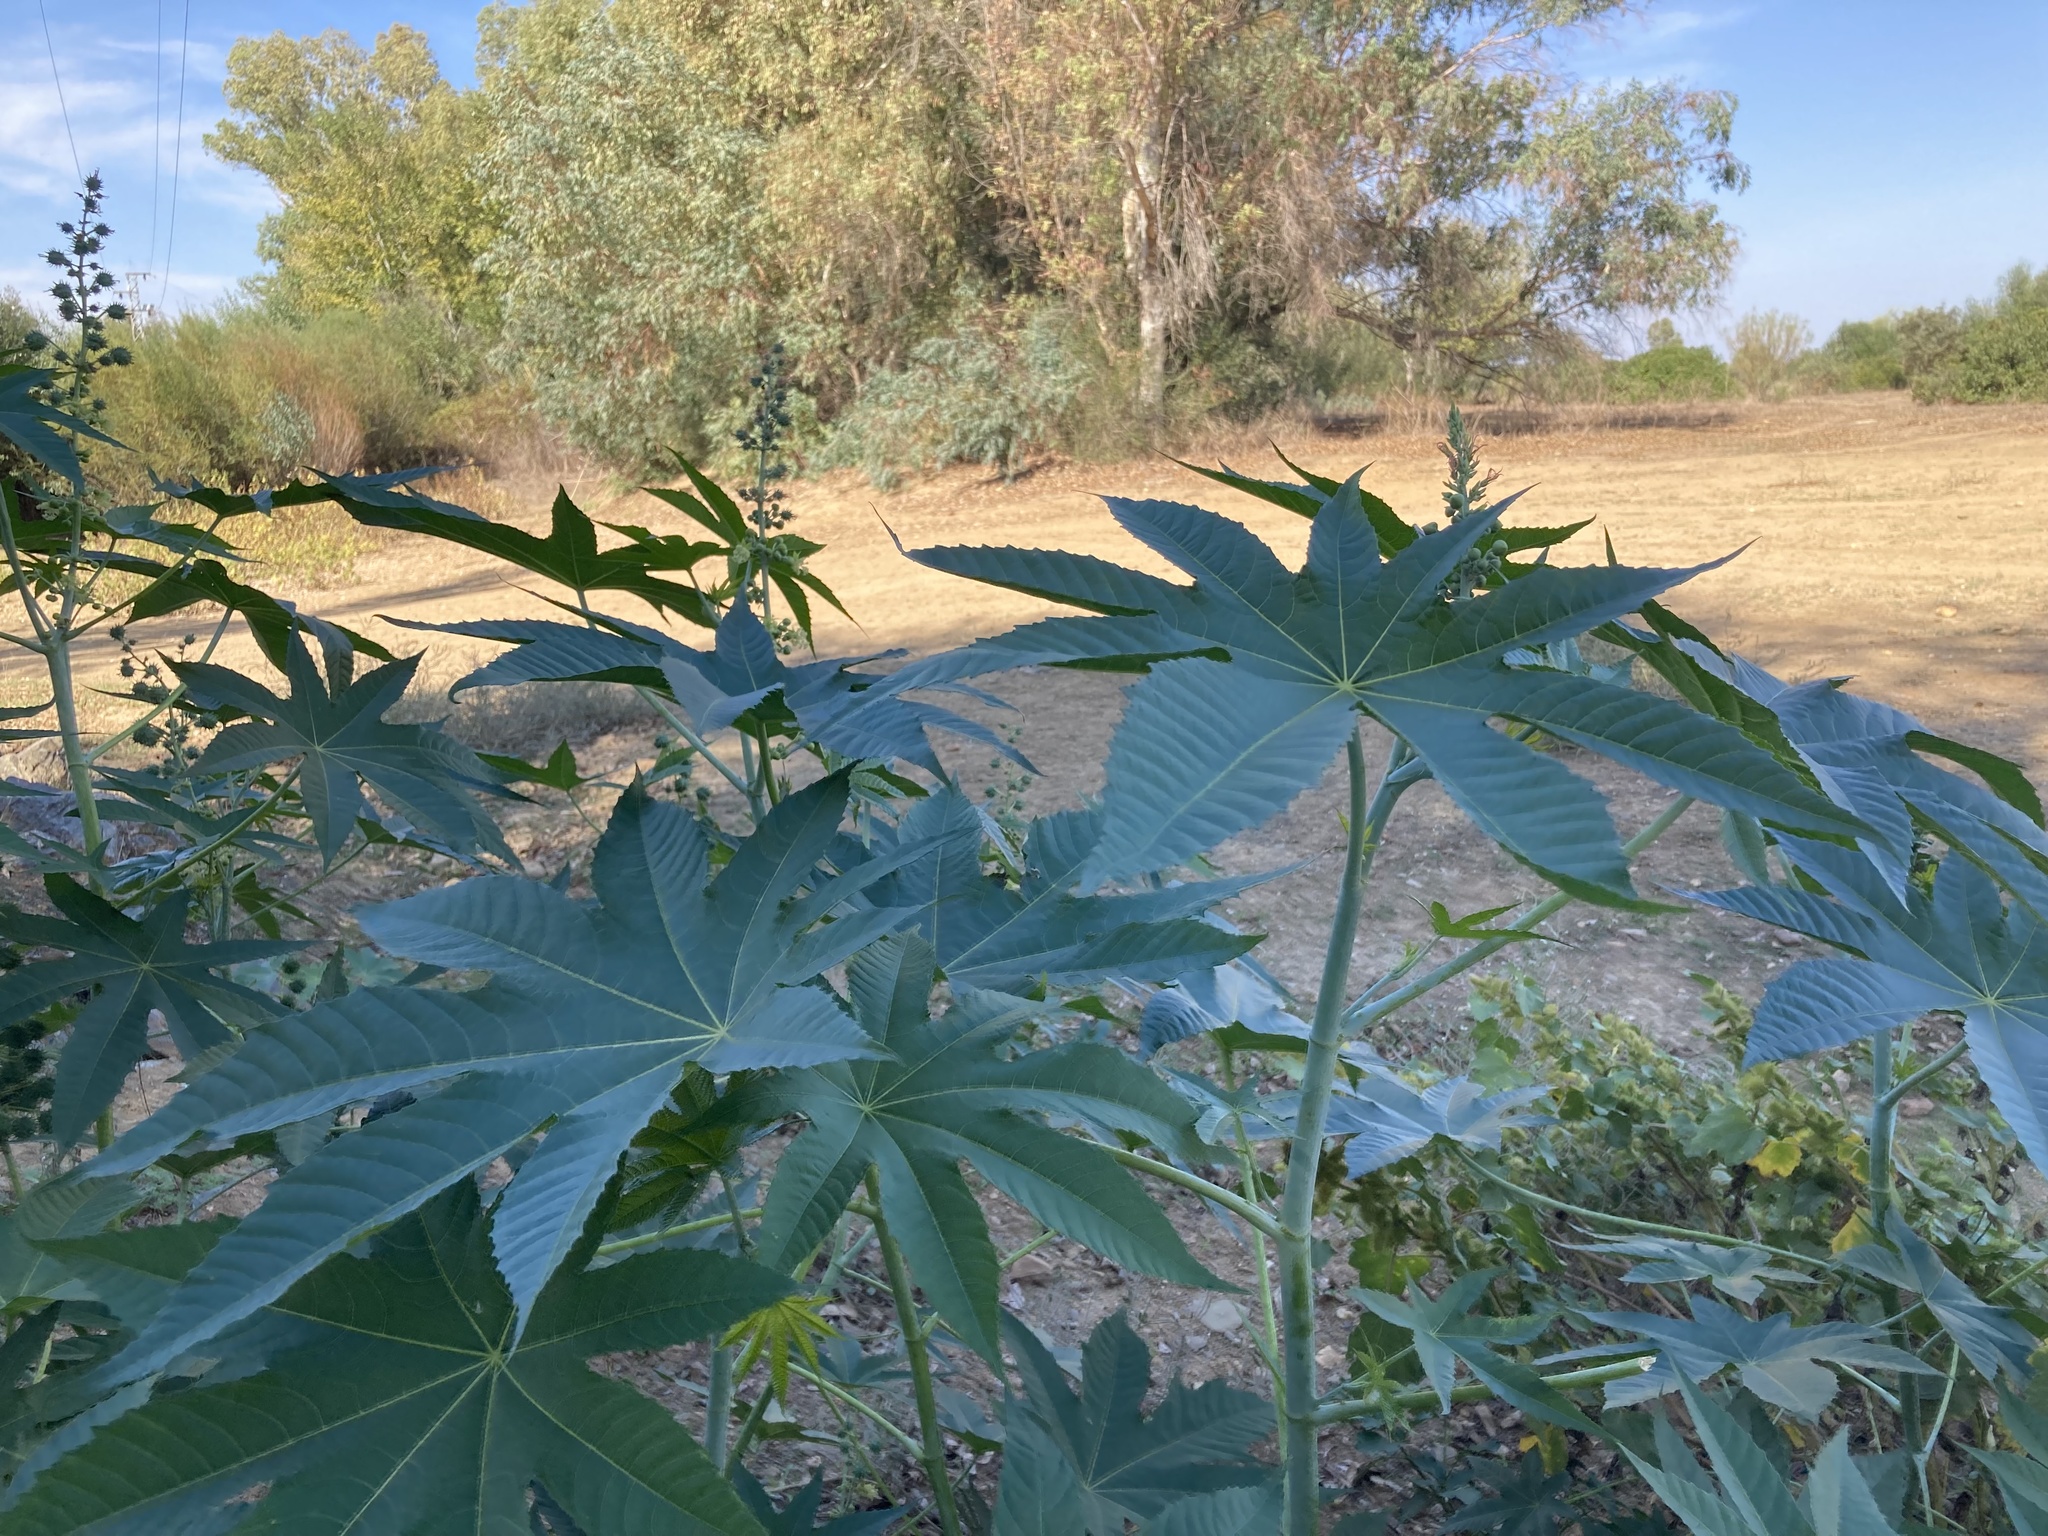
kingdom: Plantae
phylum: Tracheophyta
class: Magnoliopsida
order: Malpighiales
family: Euphorbiaceae
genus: Ricinus
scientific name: Ricinus communis
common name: Castor-oil-plant
